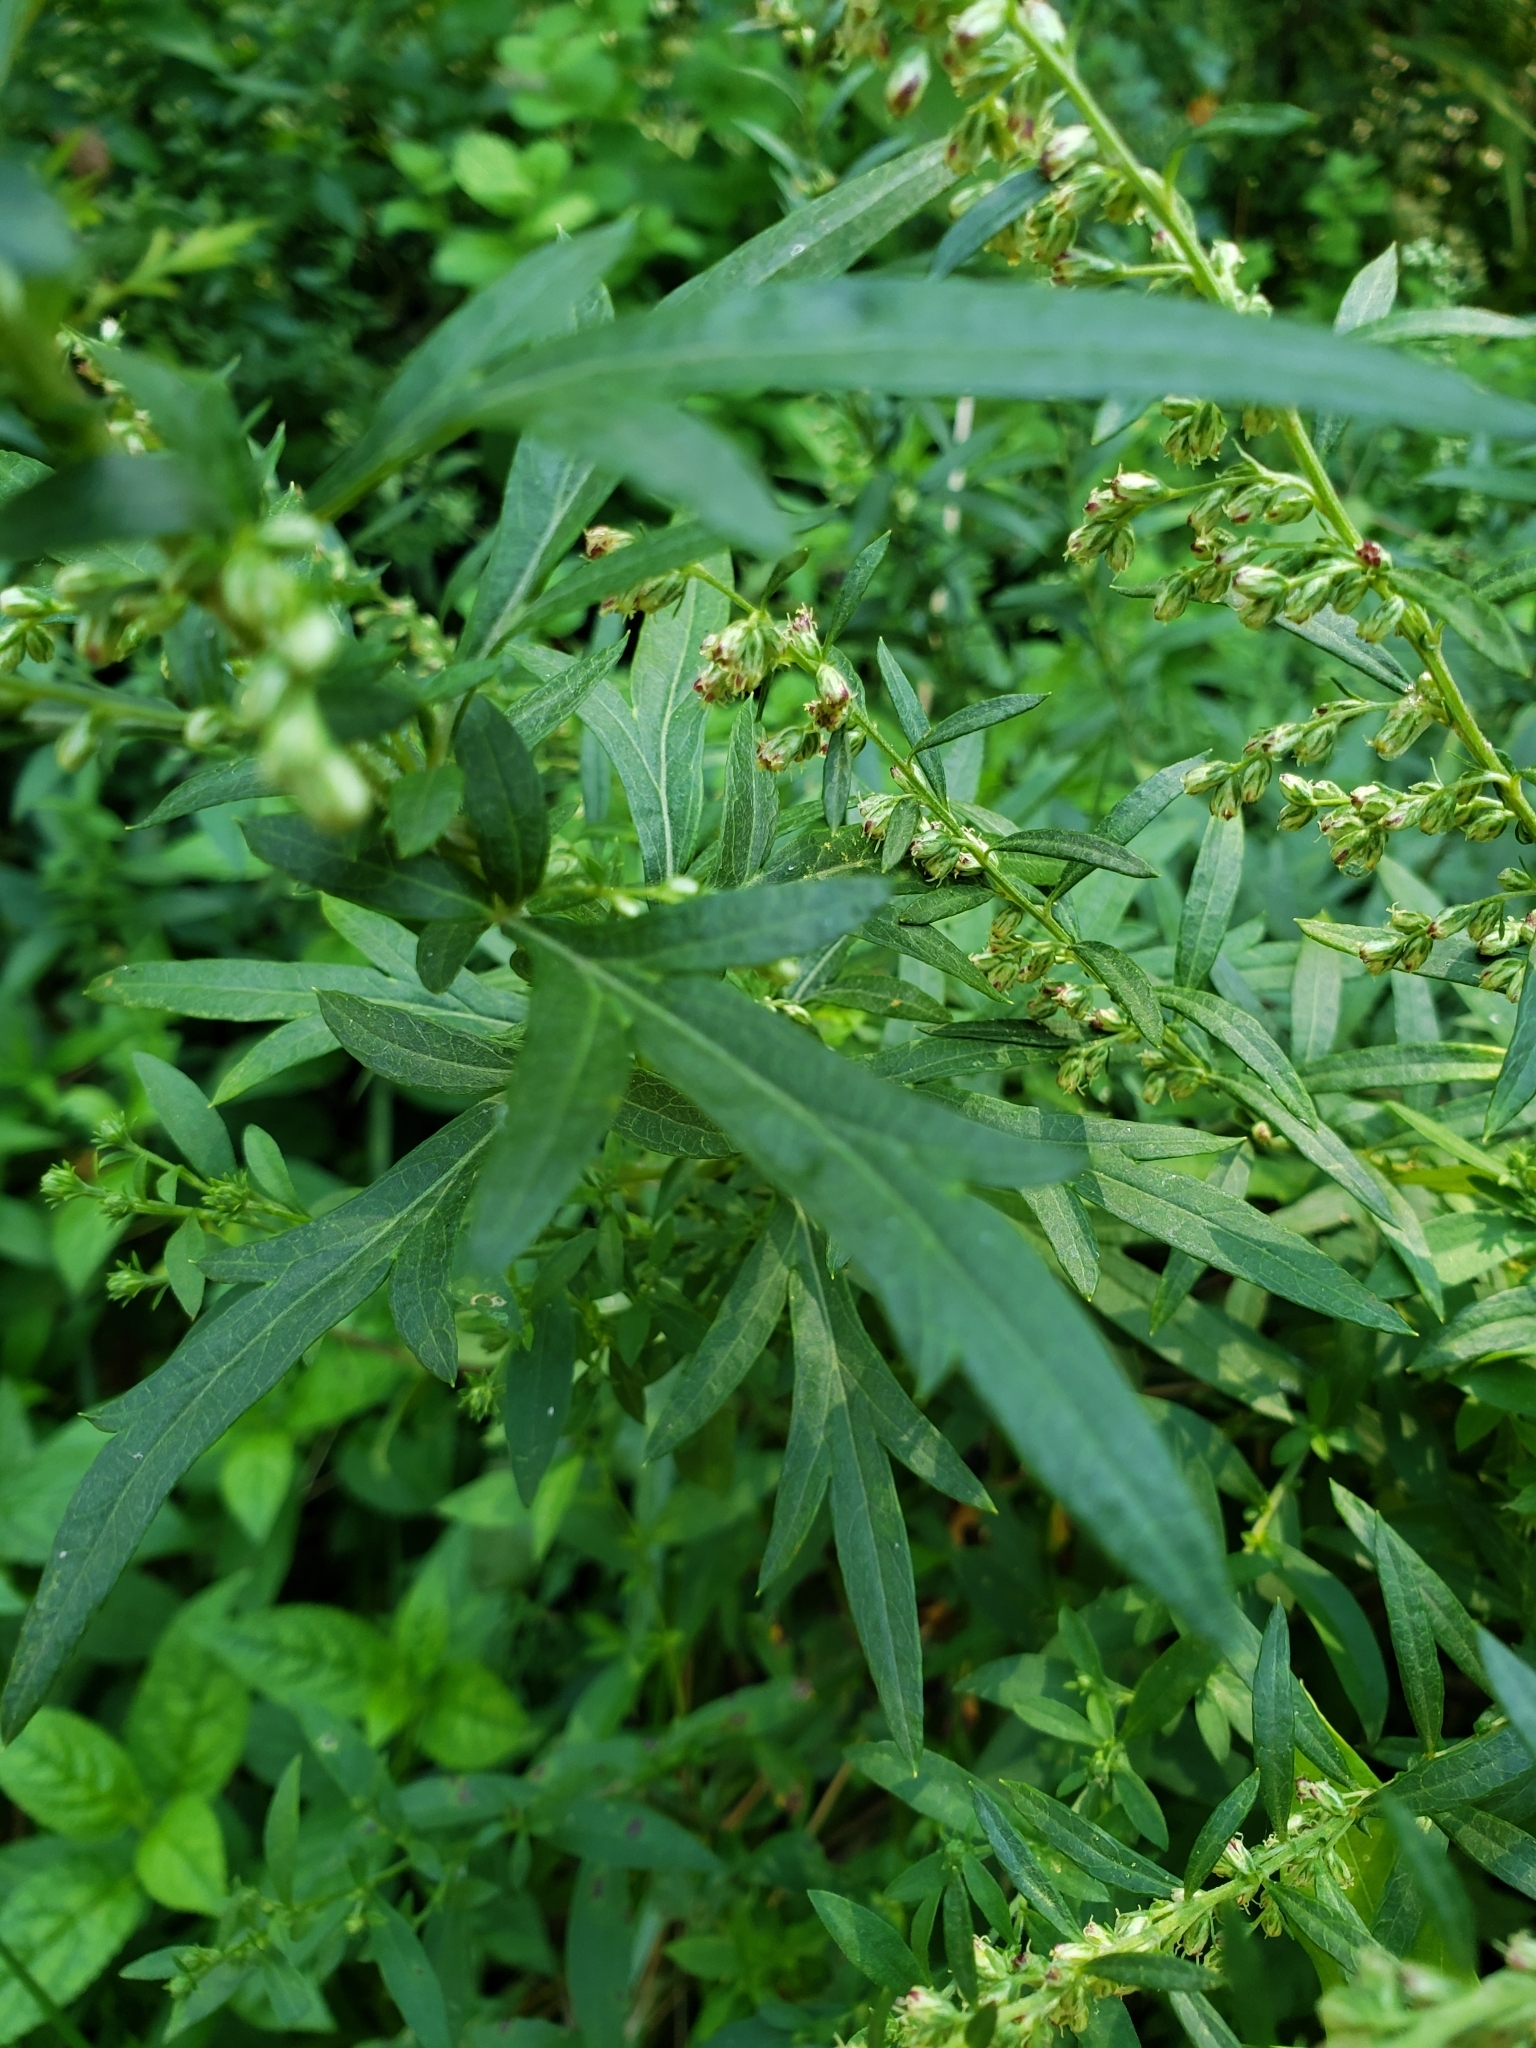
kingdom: Plantae
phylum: Tracheophyta
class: Magnoliopsida
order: Asterales
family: Asteraceae
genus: Artemisia
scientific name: Artemisia vulgaris
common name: Mugwort
